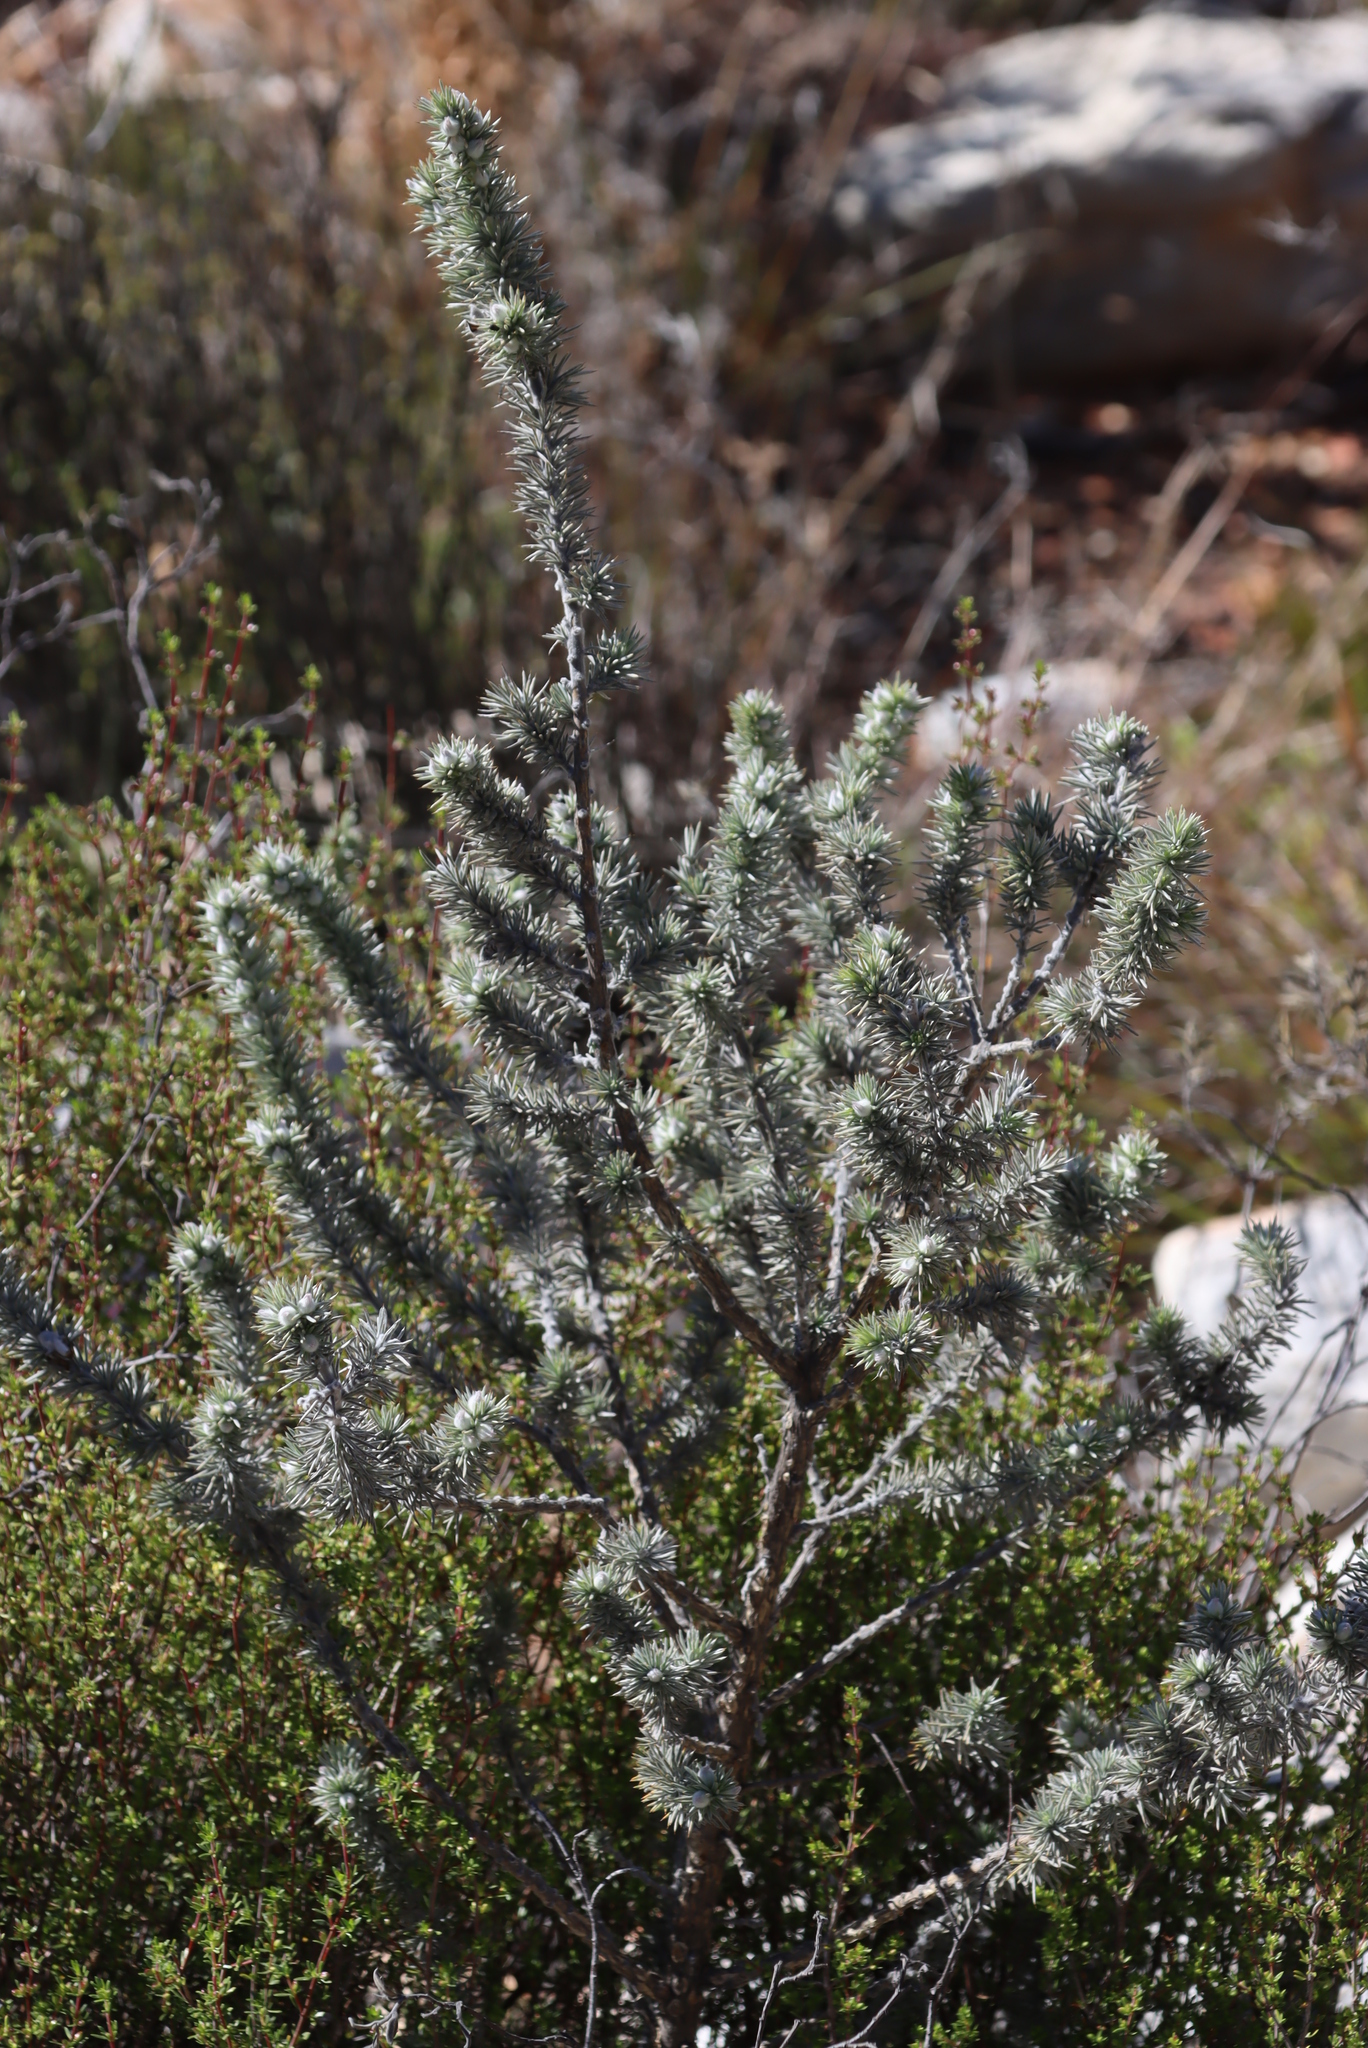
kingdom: Plantae
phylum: Tracheophyta
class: Magnoliopsida
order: Fabales
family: Fabaceae
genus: Aspalathus
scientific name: Aspalathus hystrix
